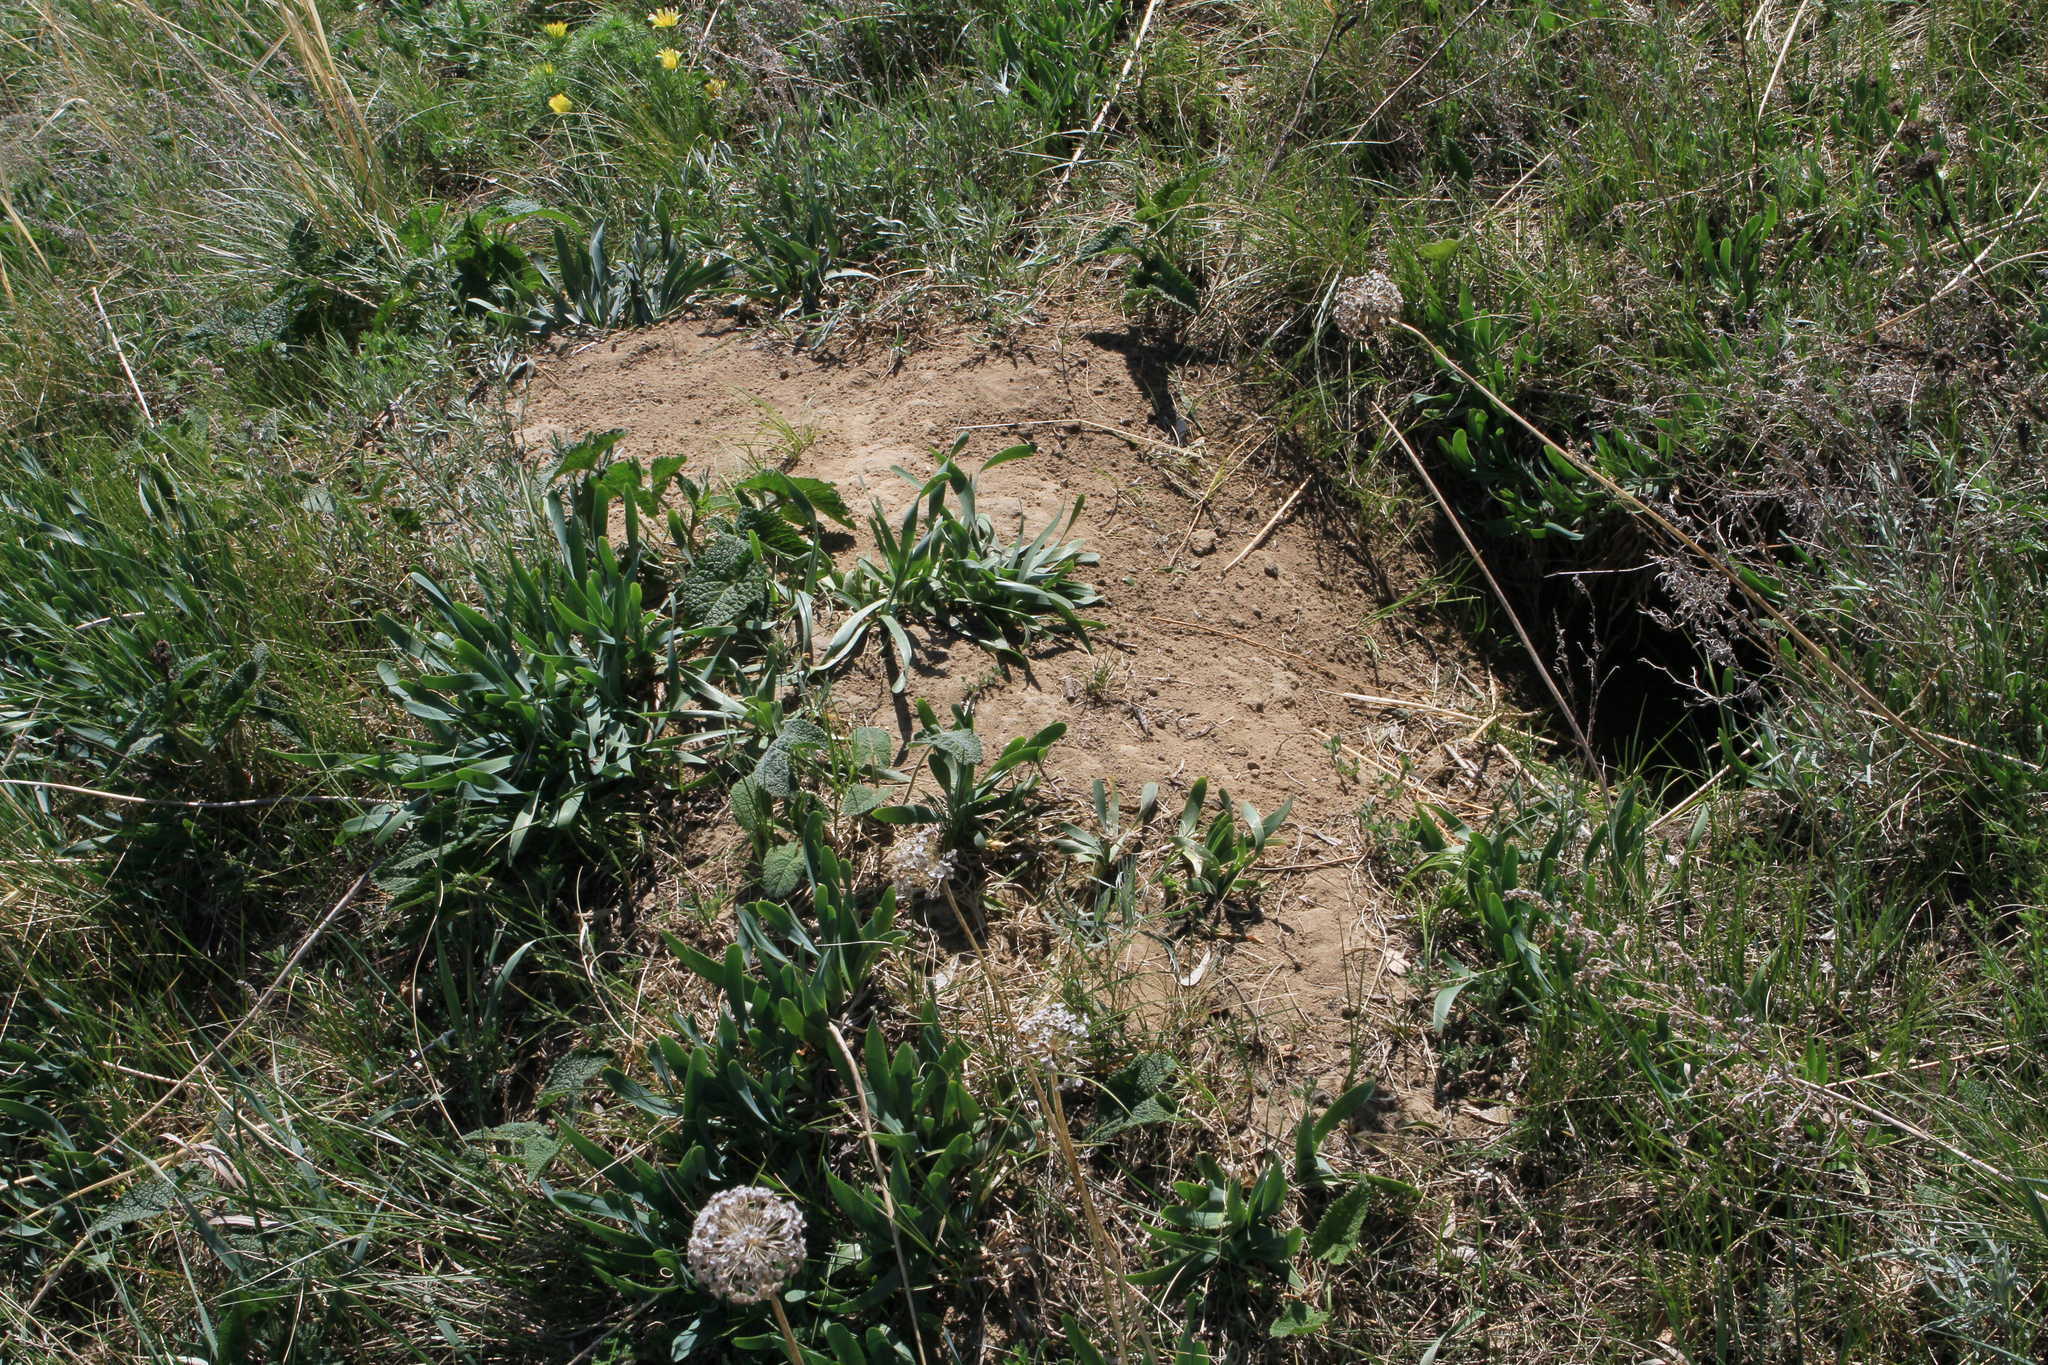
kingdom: Animalia
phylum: Chordata
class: Mammalia
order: Rodentia
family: Sciuridae
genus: Marmota
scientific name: Marmota kastschenkoi
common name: Forest steppe marmot
